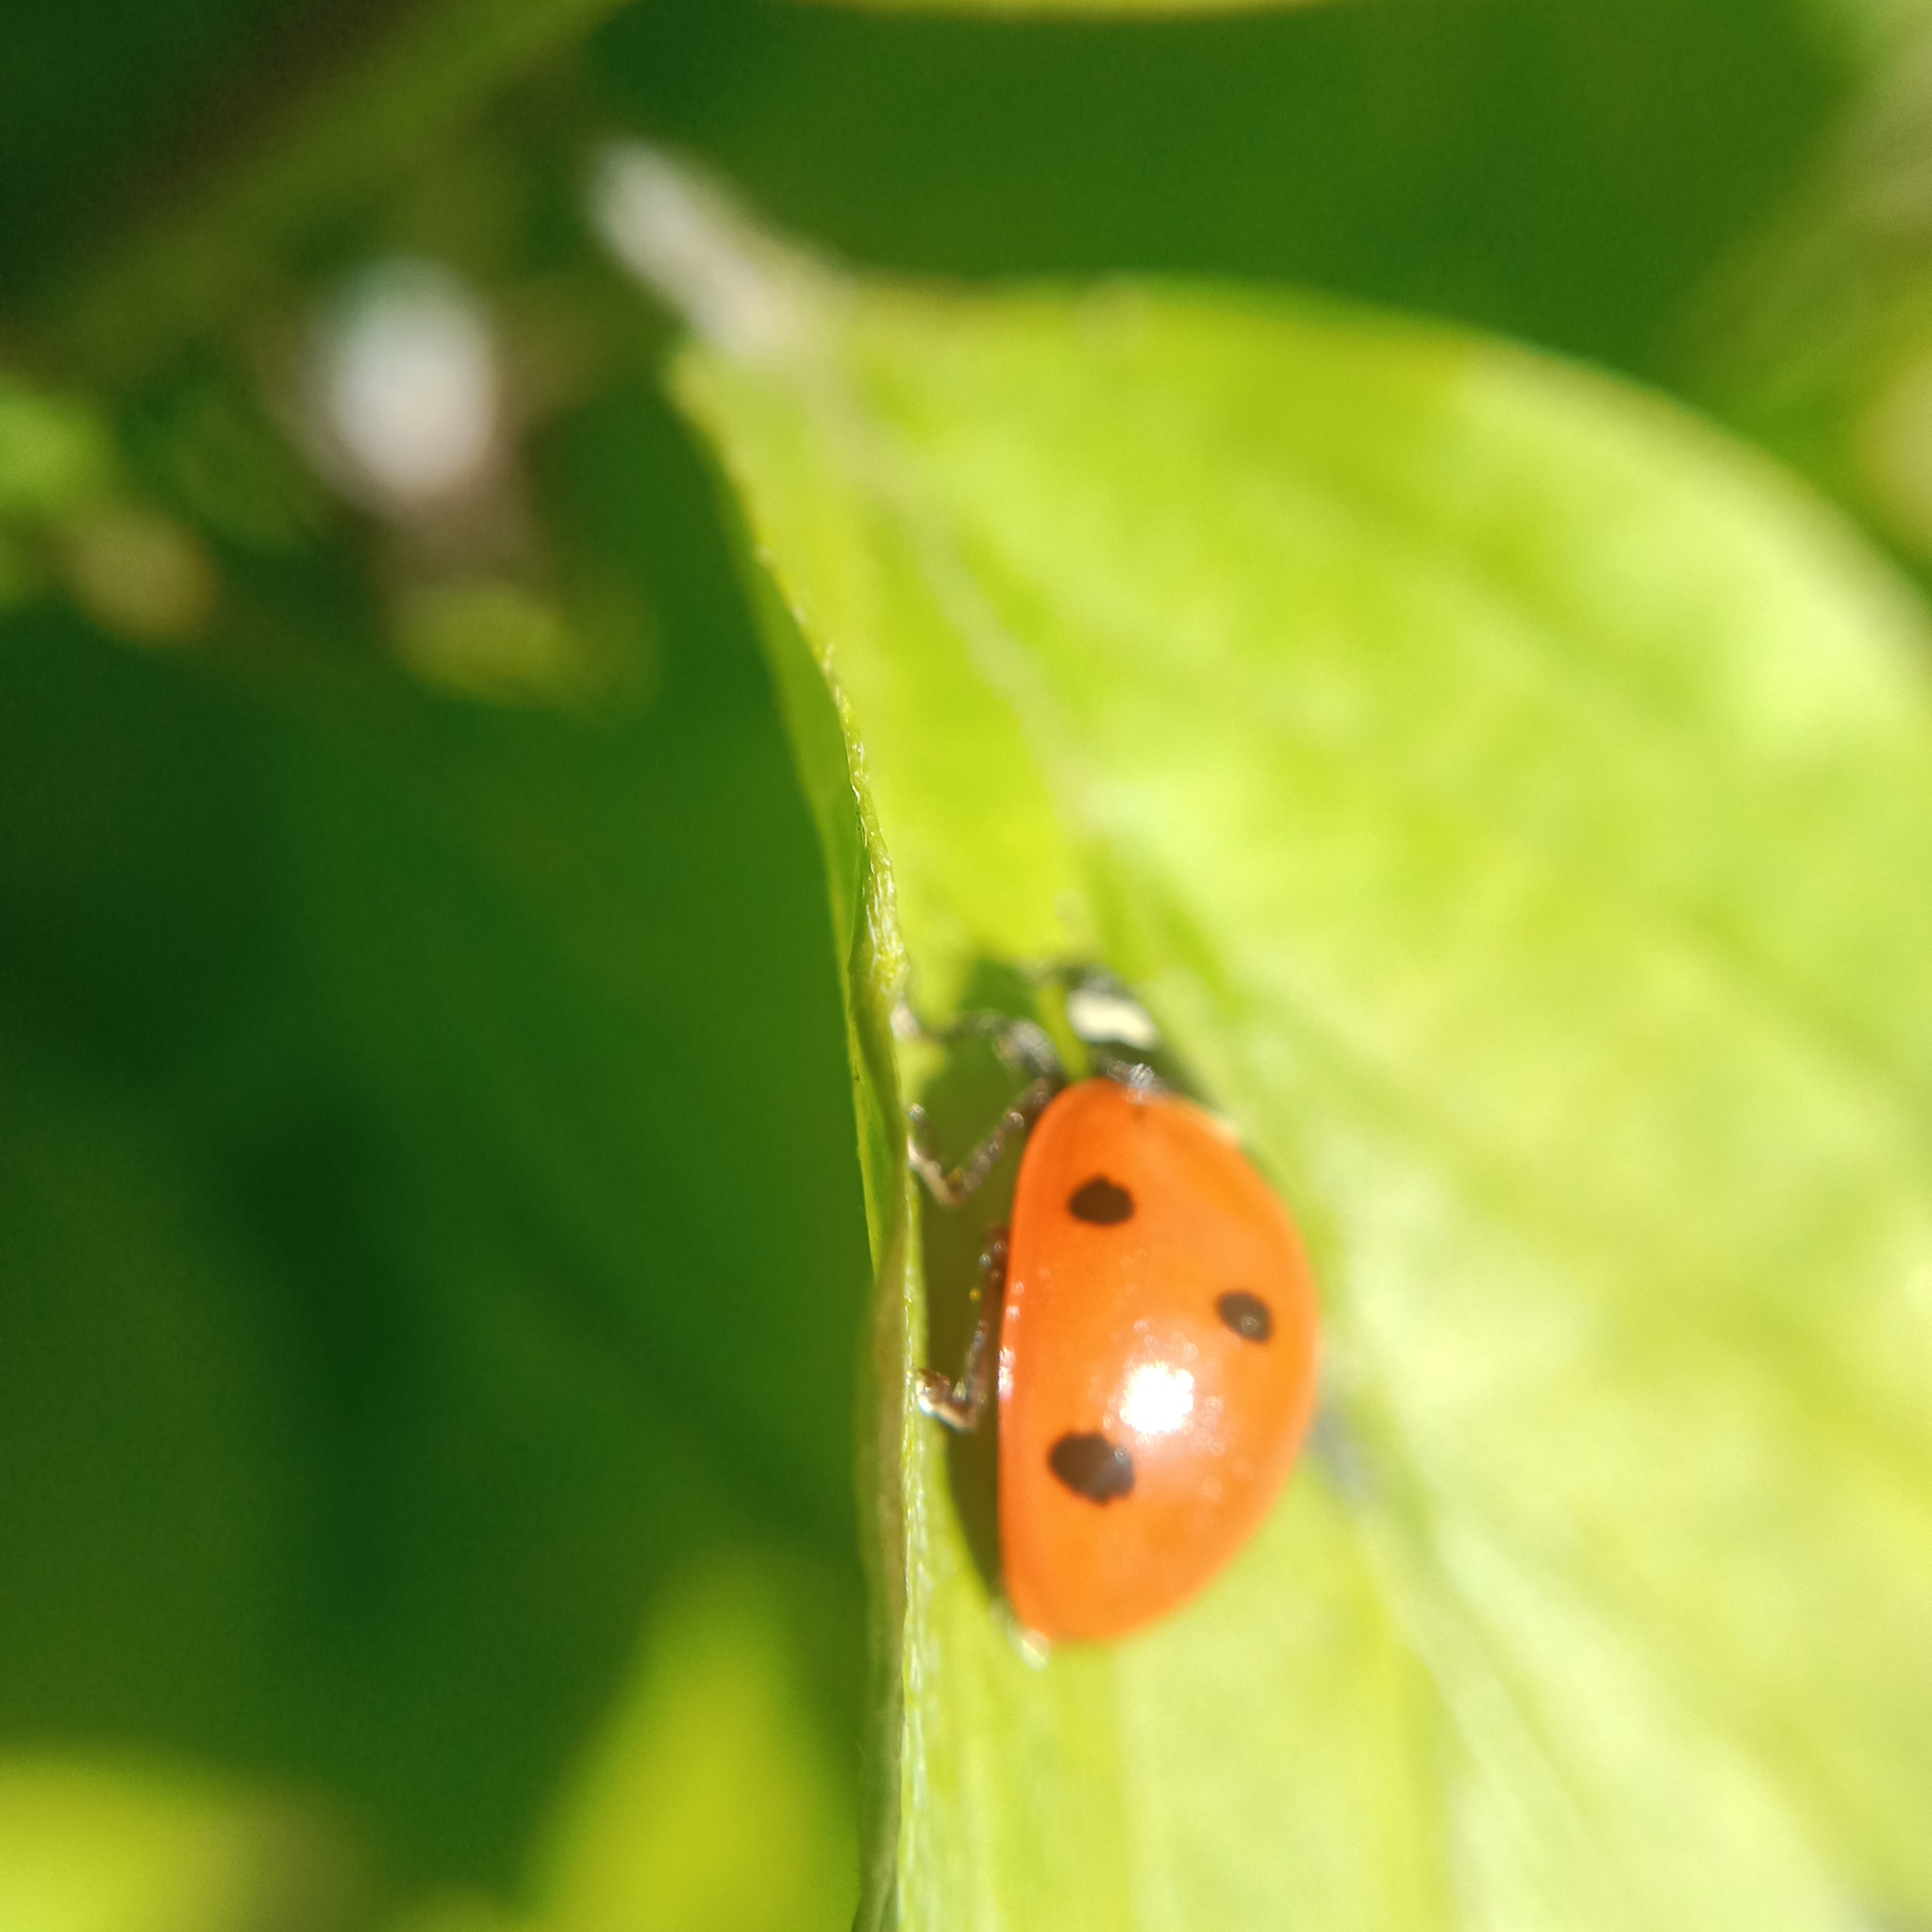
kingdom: Animalia
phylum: Arthropoda
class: Insecta
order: Coleoptera
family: Coccinellidae
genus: Coccinella
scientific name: Coccinella septempunctata
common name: Sevenspotted lady beetle
